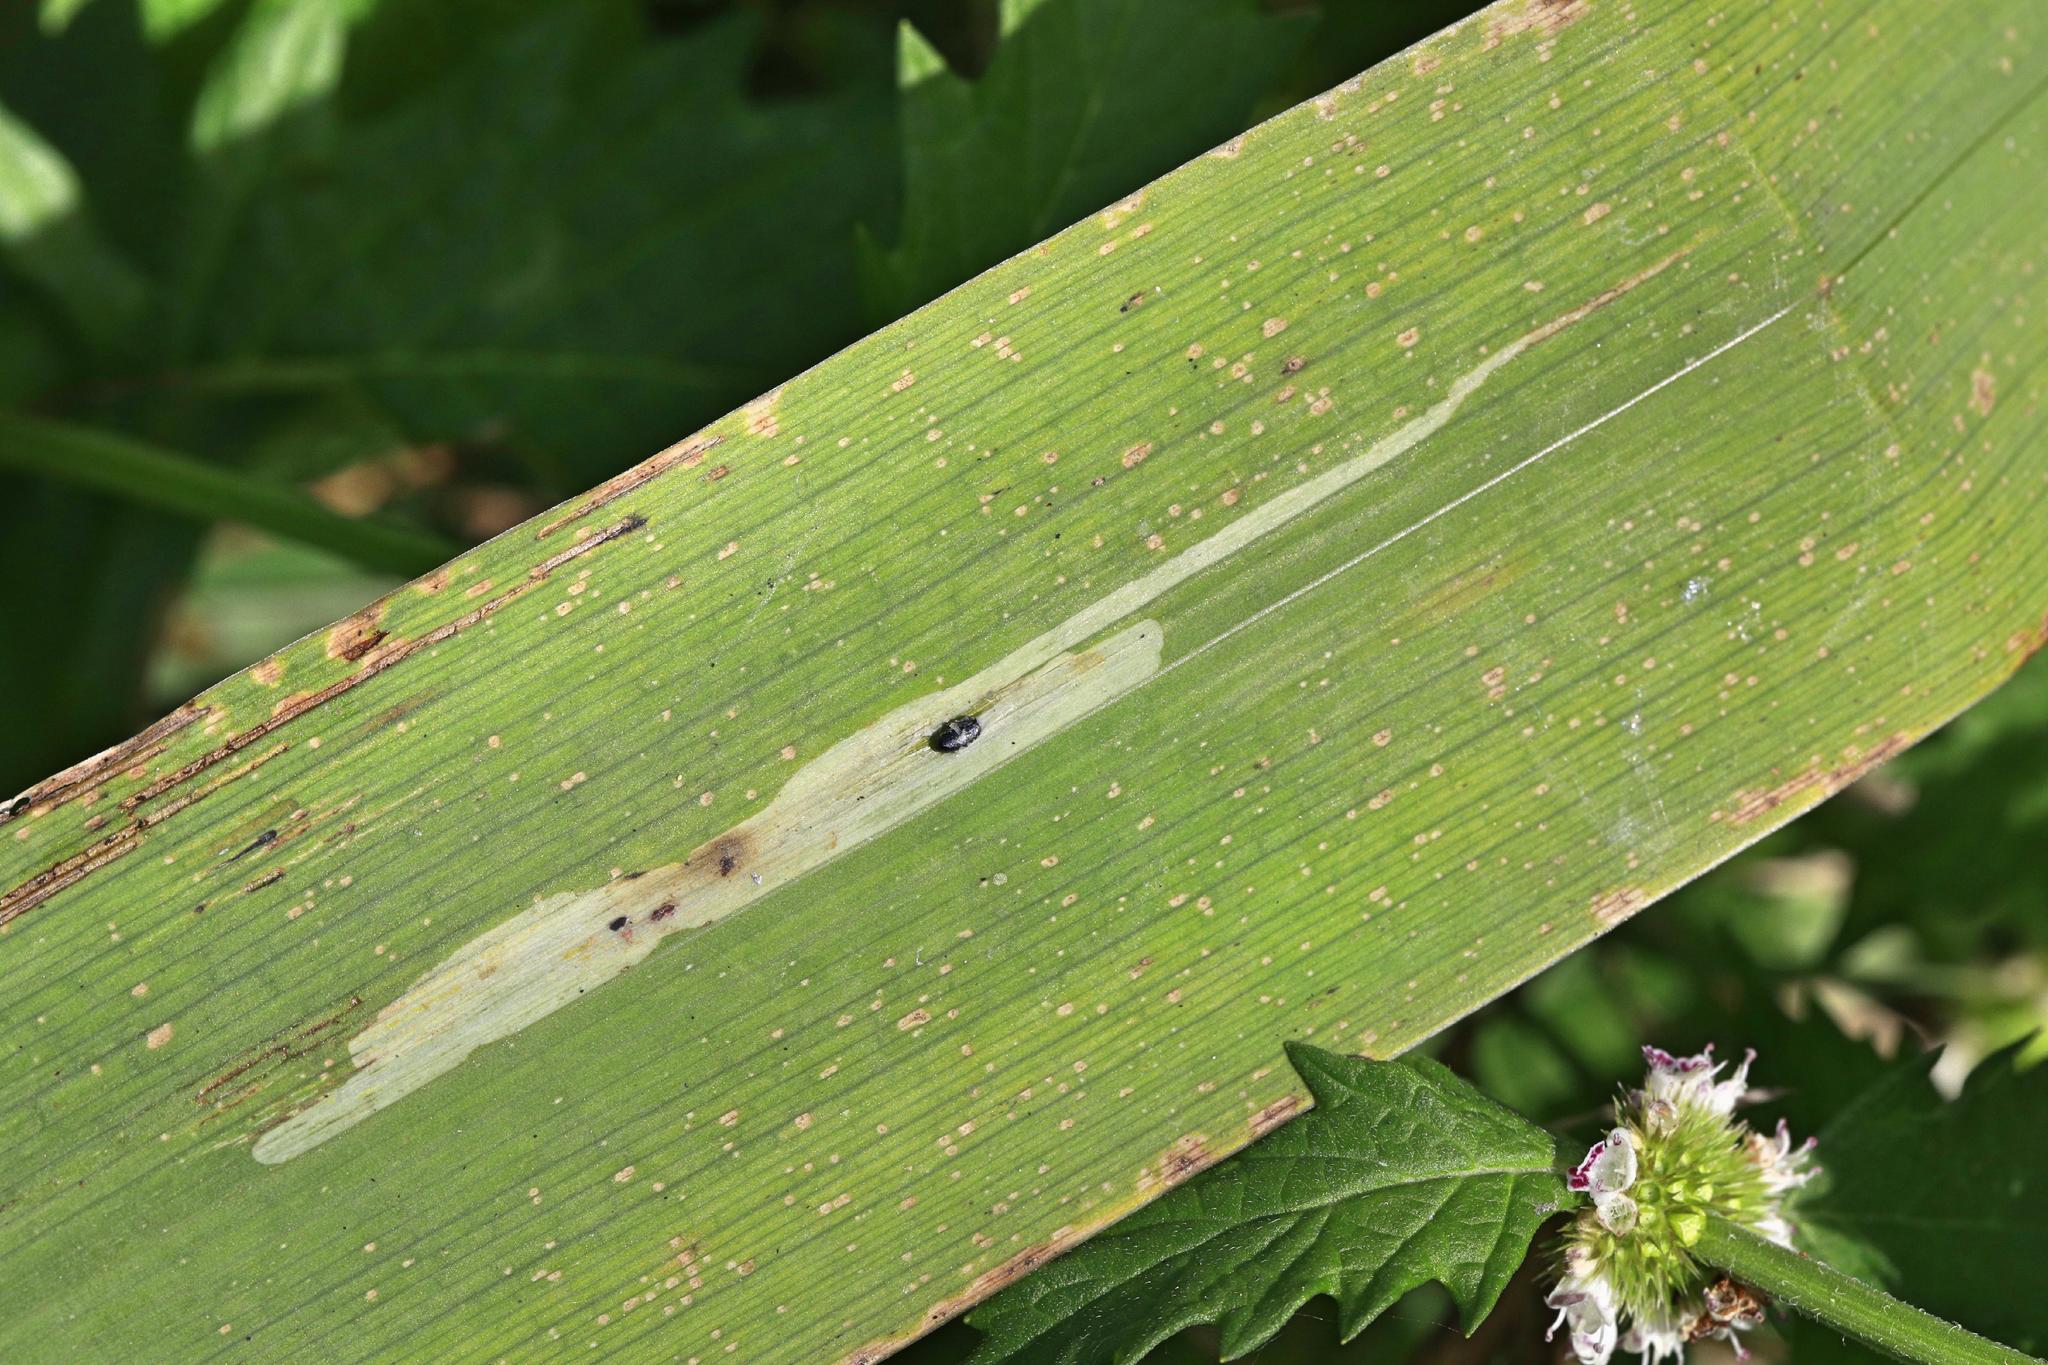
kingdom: Animalia
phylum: Arthropoda
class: Insecta
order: Diptera
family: Agromyzidae
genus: Cerodontha
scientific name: Cerodontha ircos
